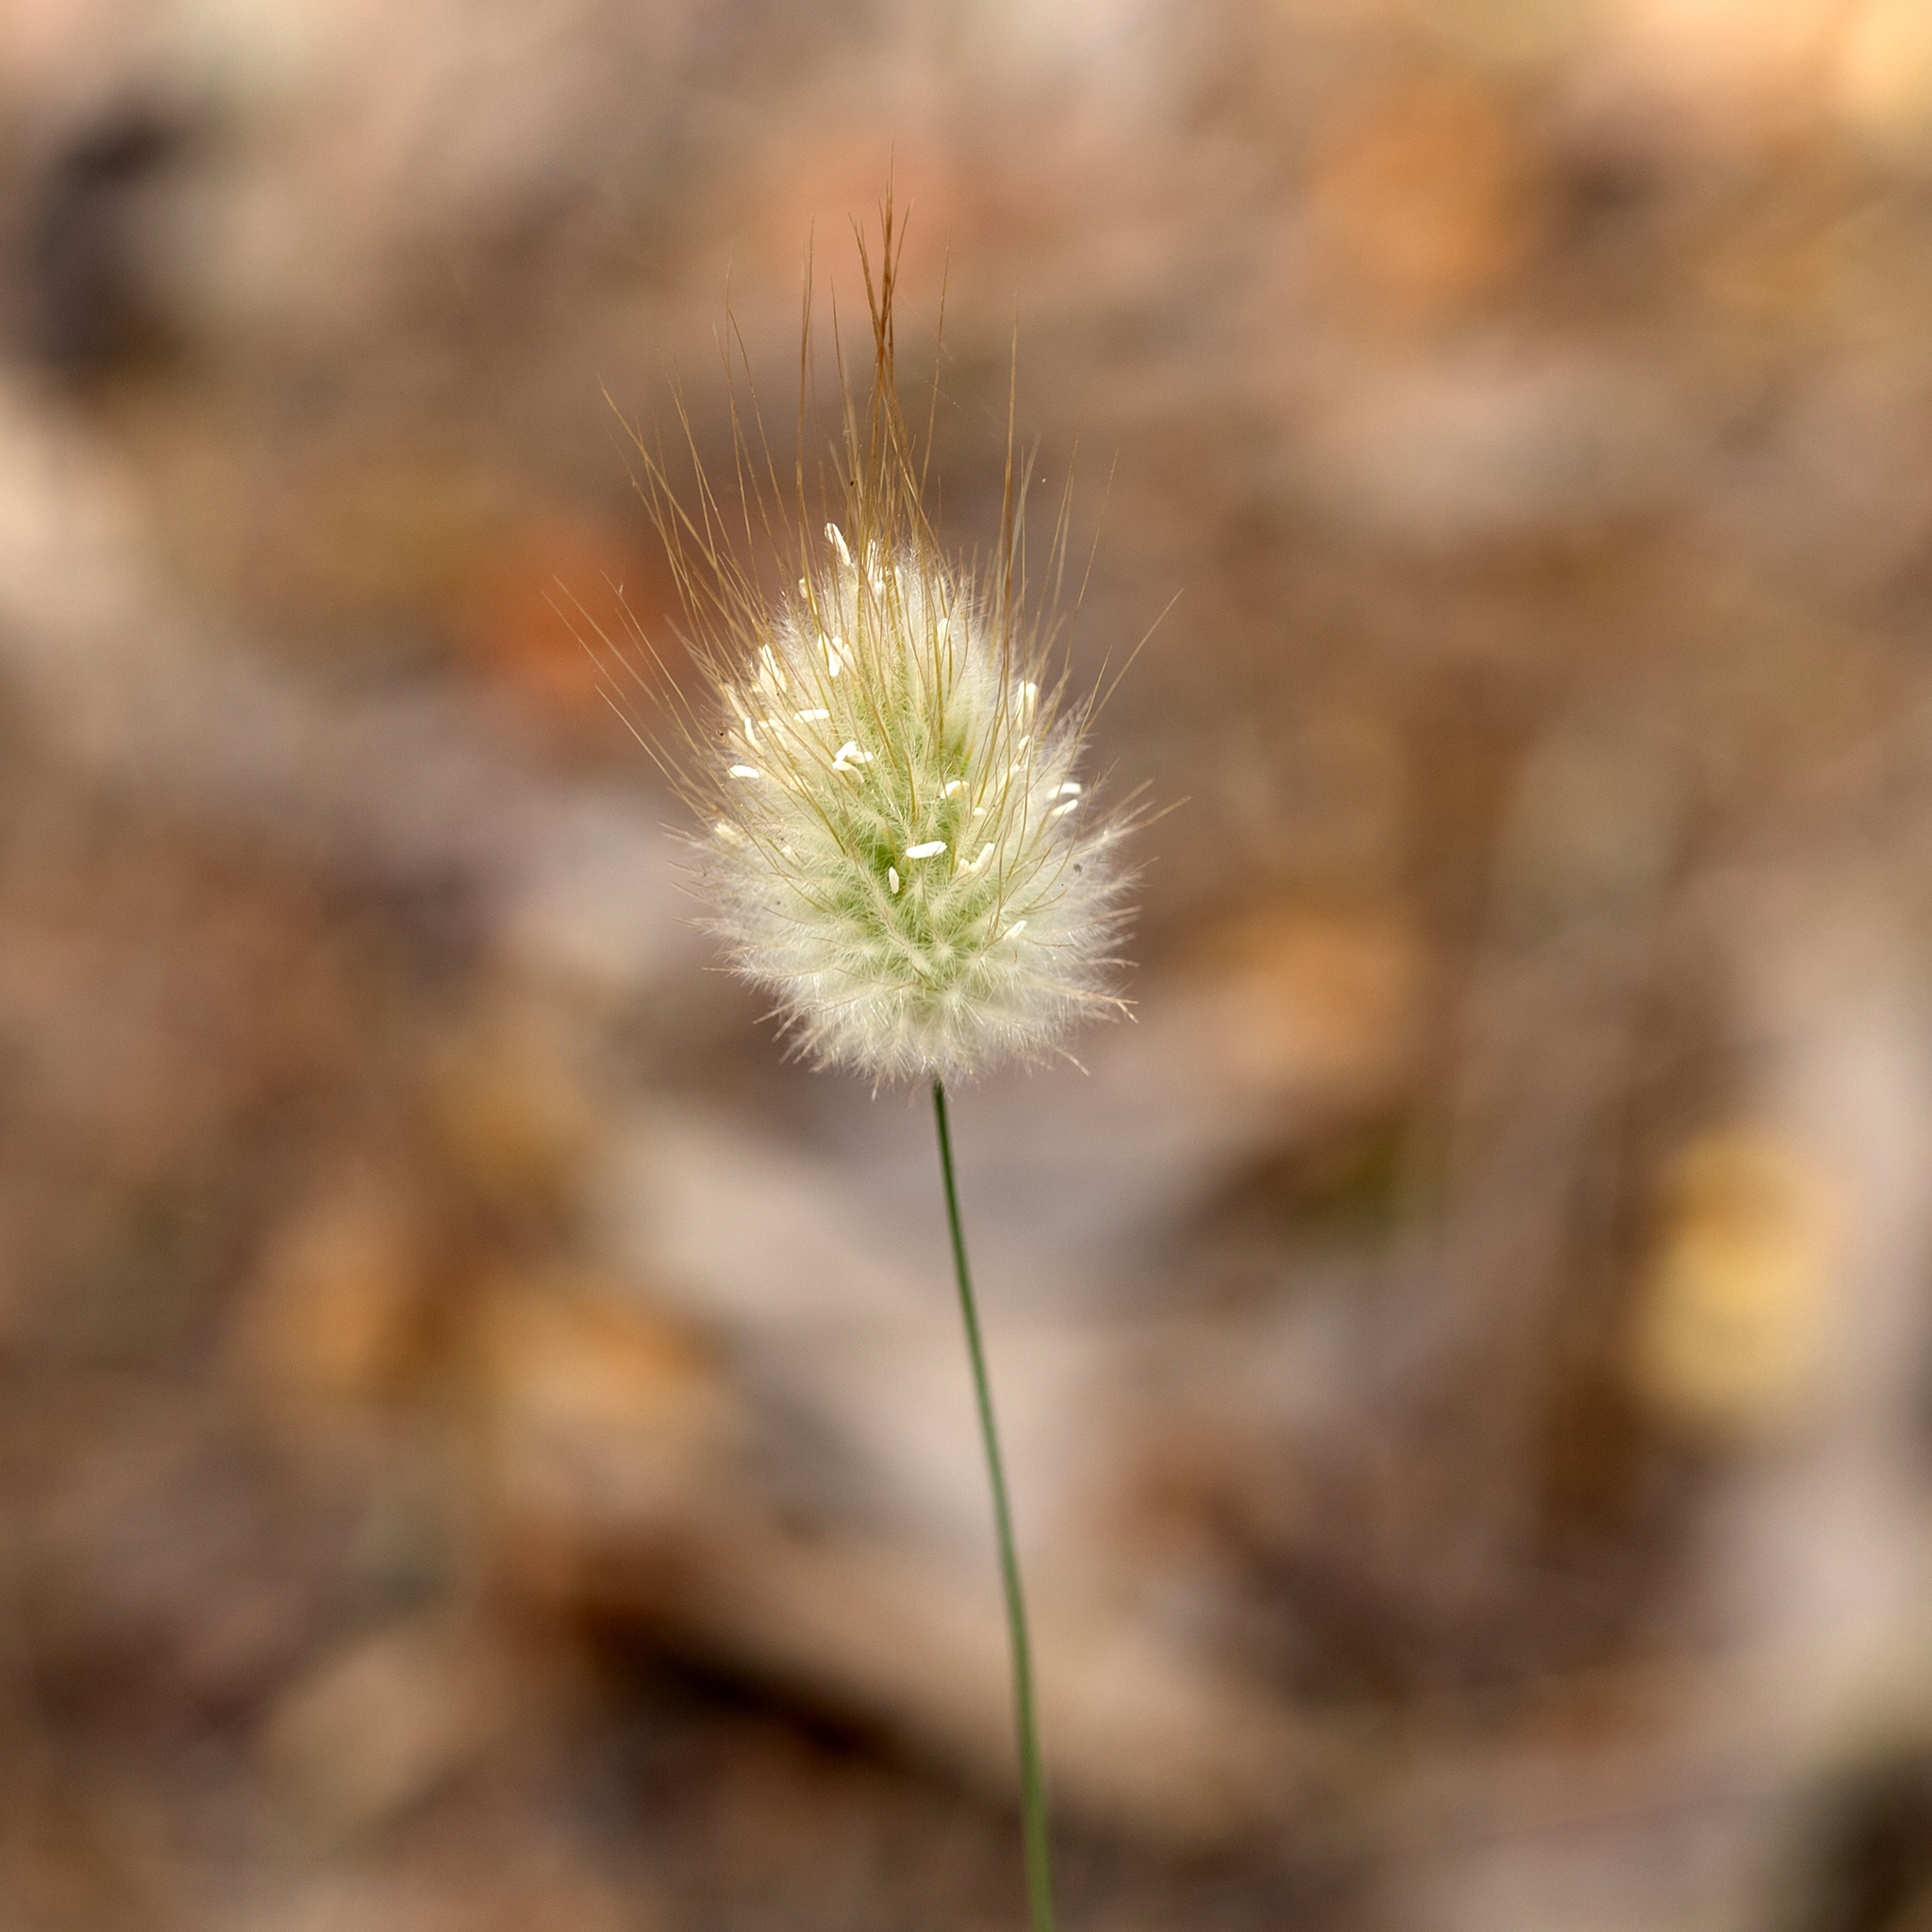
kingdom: Plantae
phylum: Tracheophyta
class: Liliopsida
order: Poales
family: Poaceae
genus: Lagurus
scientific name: Lagurus ovatus
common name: Hare's-tail
